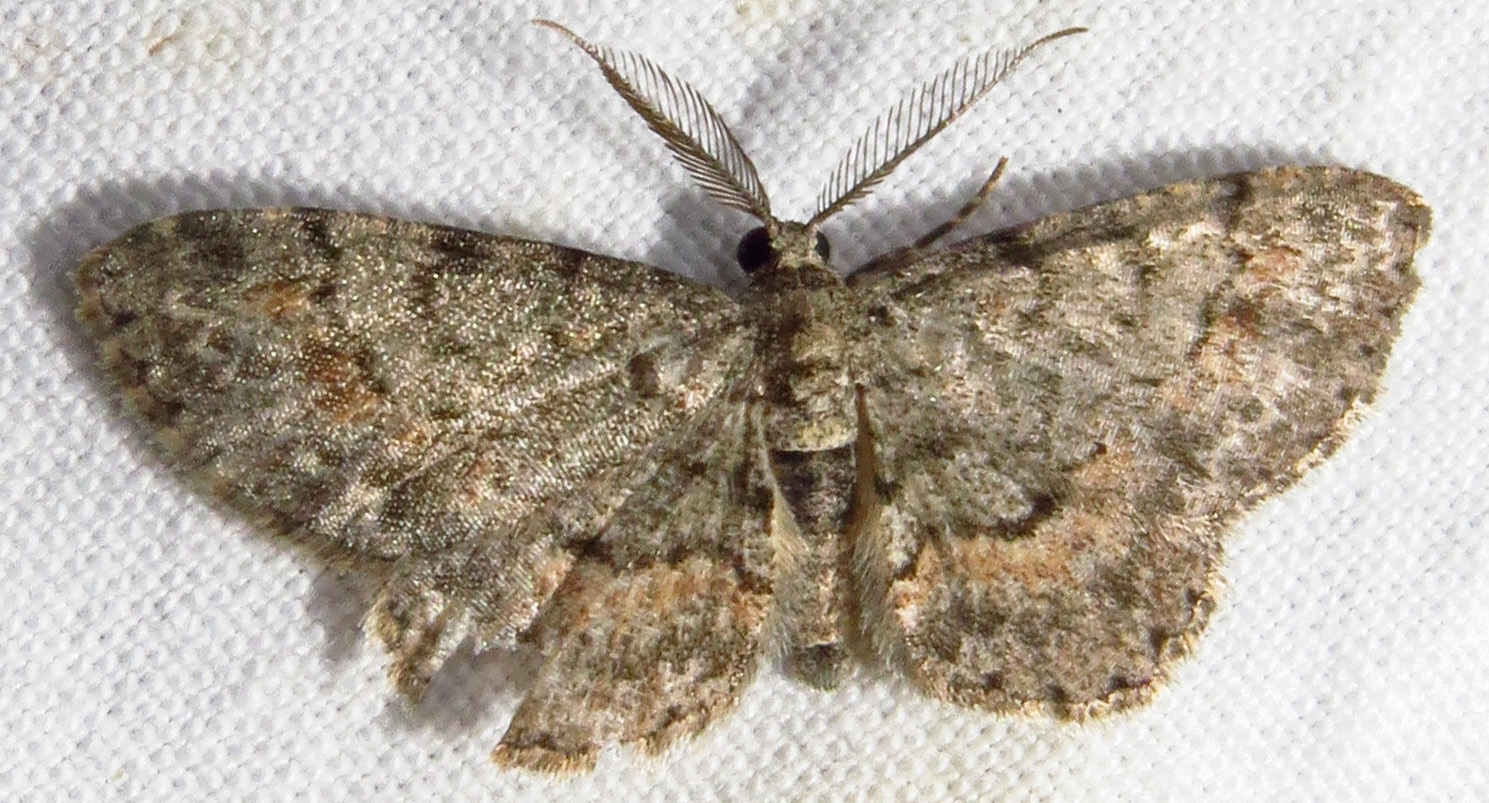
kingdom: Animalia
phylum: Arthropoda
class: Insecta
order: Lepidoptera
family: Geometridae
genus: Glenoides
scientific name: Glenoides texanaria
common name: Texas gray
